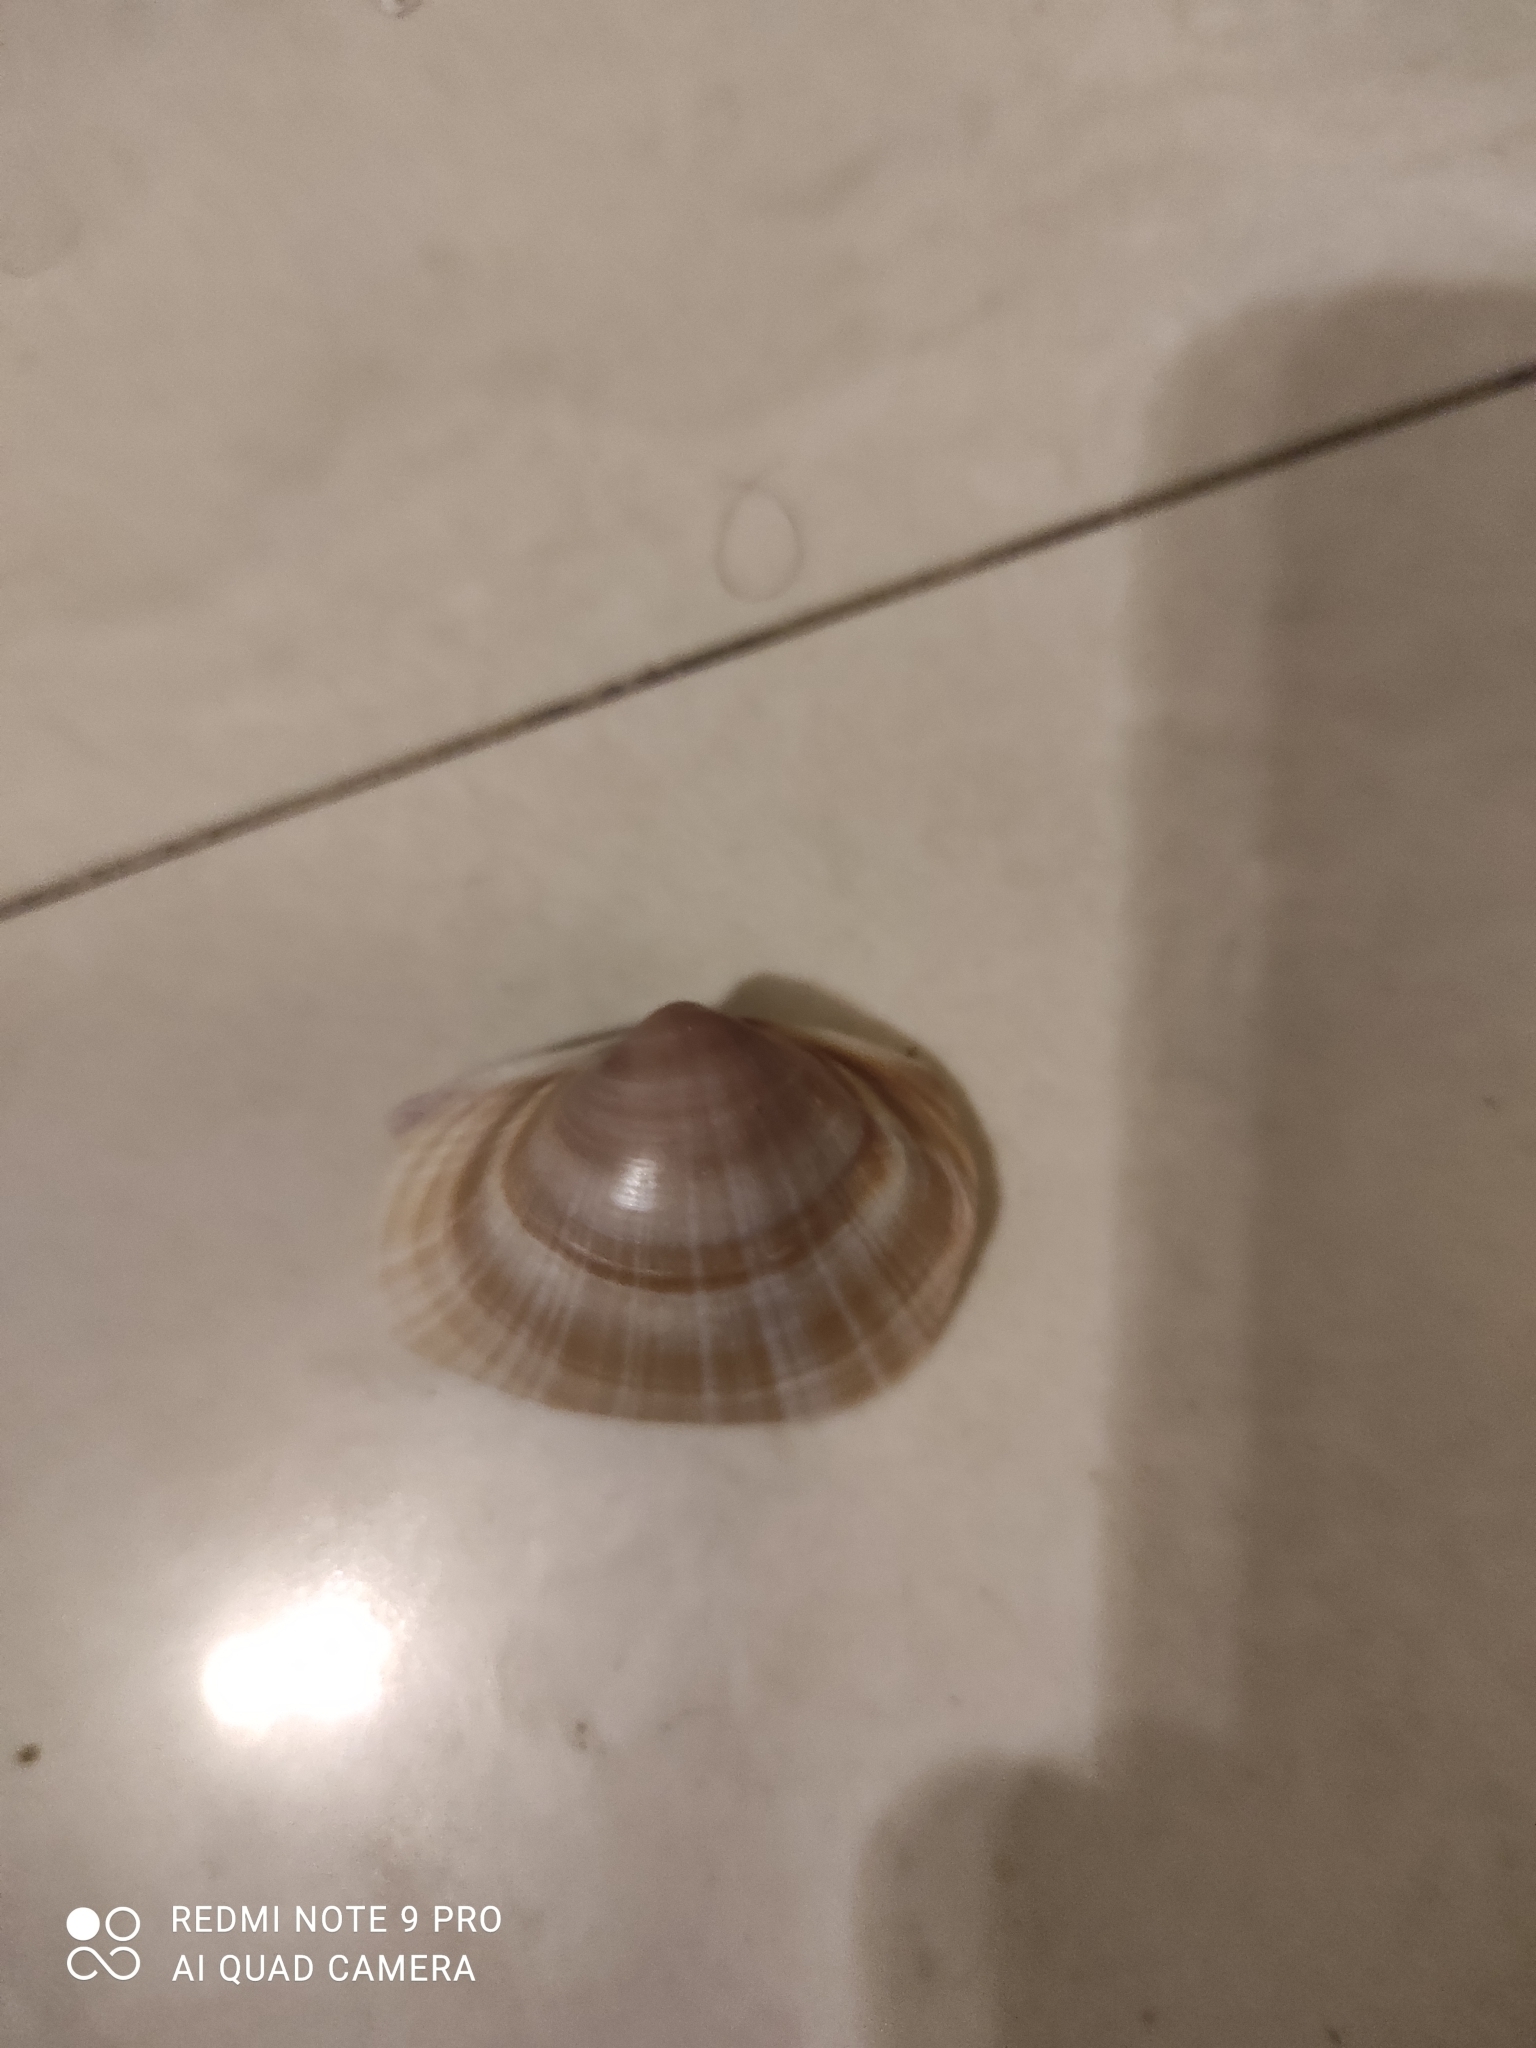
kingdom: Animalia
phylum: Mollusca
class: Bivalvia
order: Venerida
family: Mactridae
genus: Mactra
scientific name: Mactra stultorum
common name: Rayed trough shell
